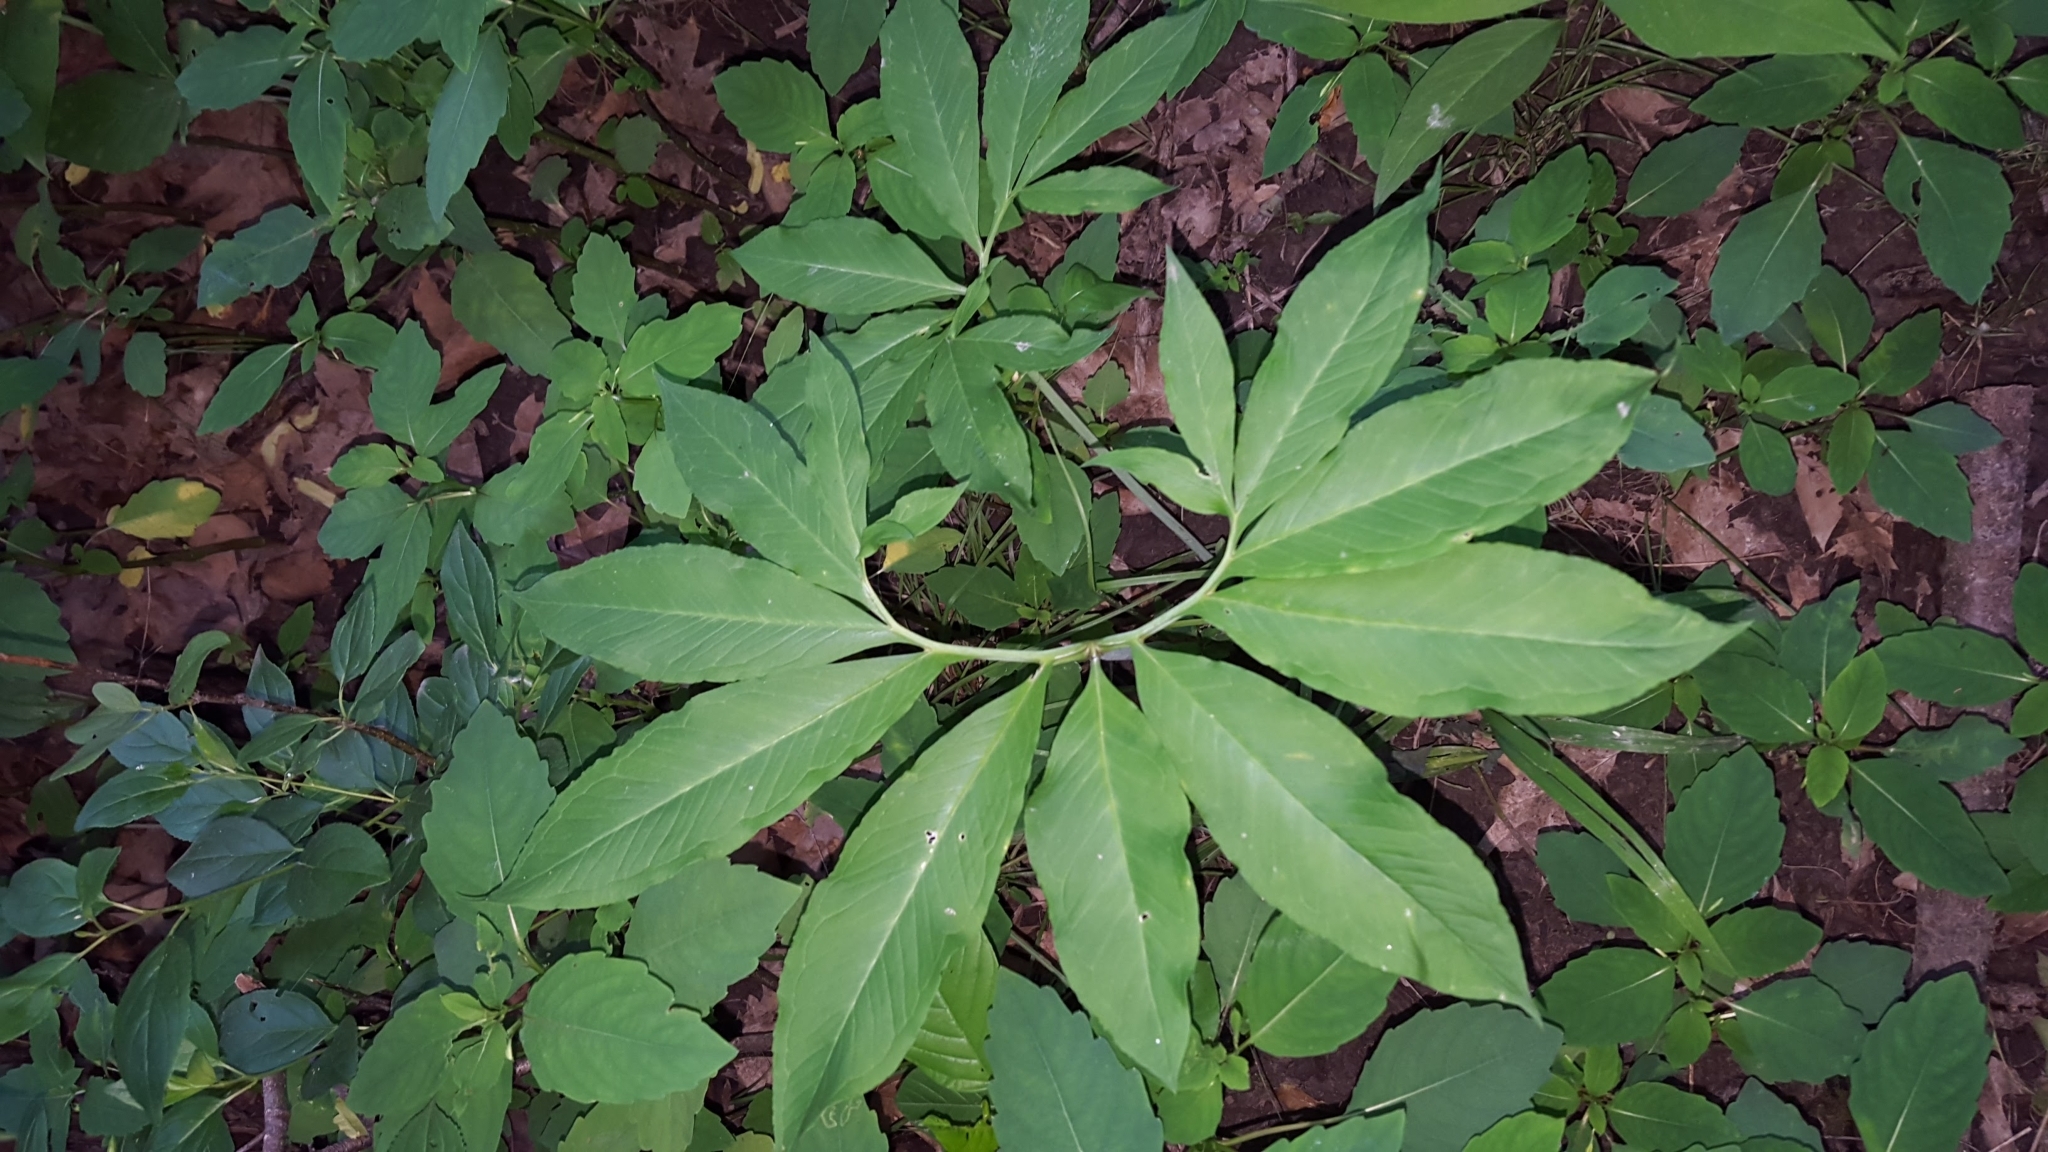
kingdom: Plantae
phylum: Tracheophyta
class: Liliopsida
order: Alismatales
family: Araceae
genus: Arisaema
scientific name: Arisaema dracontium
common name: Dragon-arum
